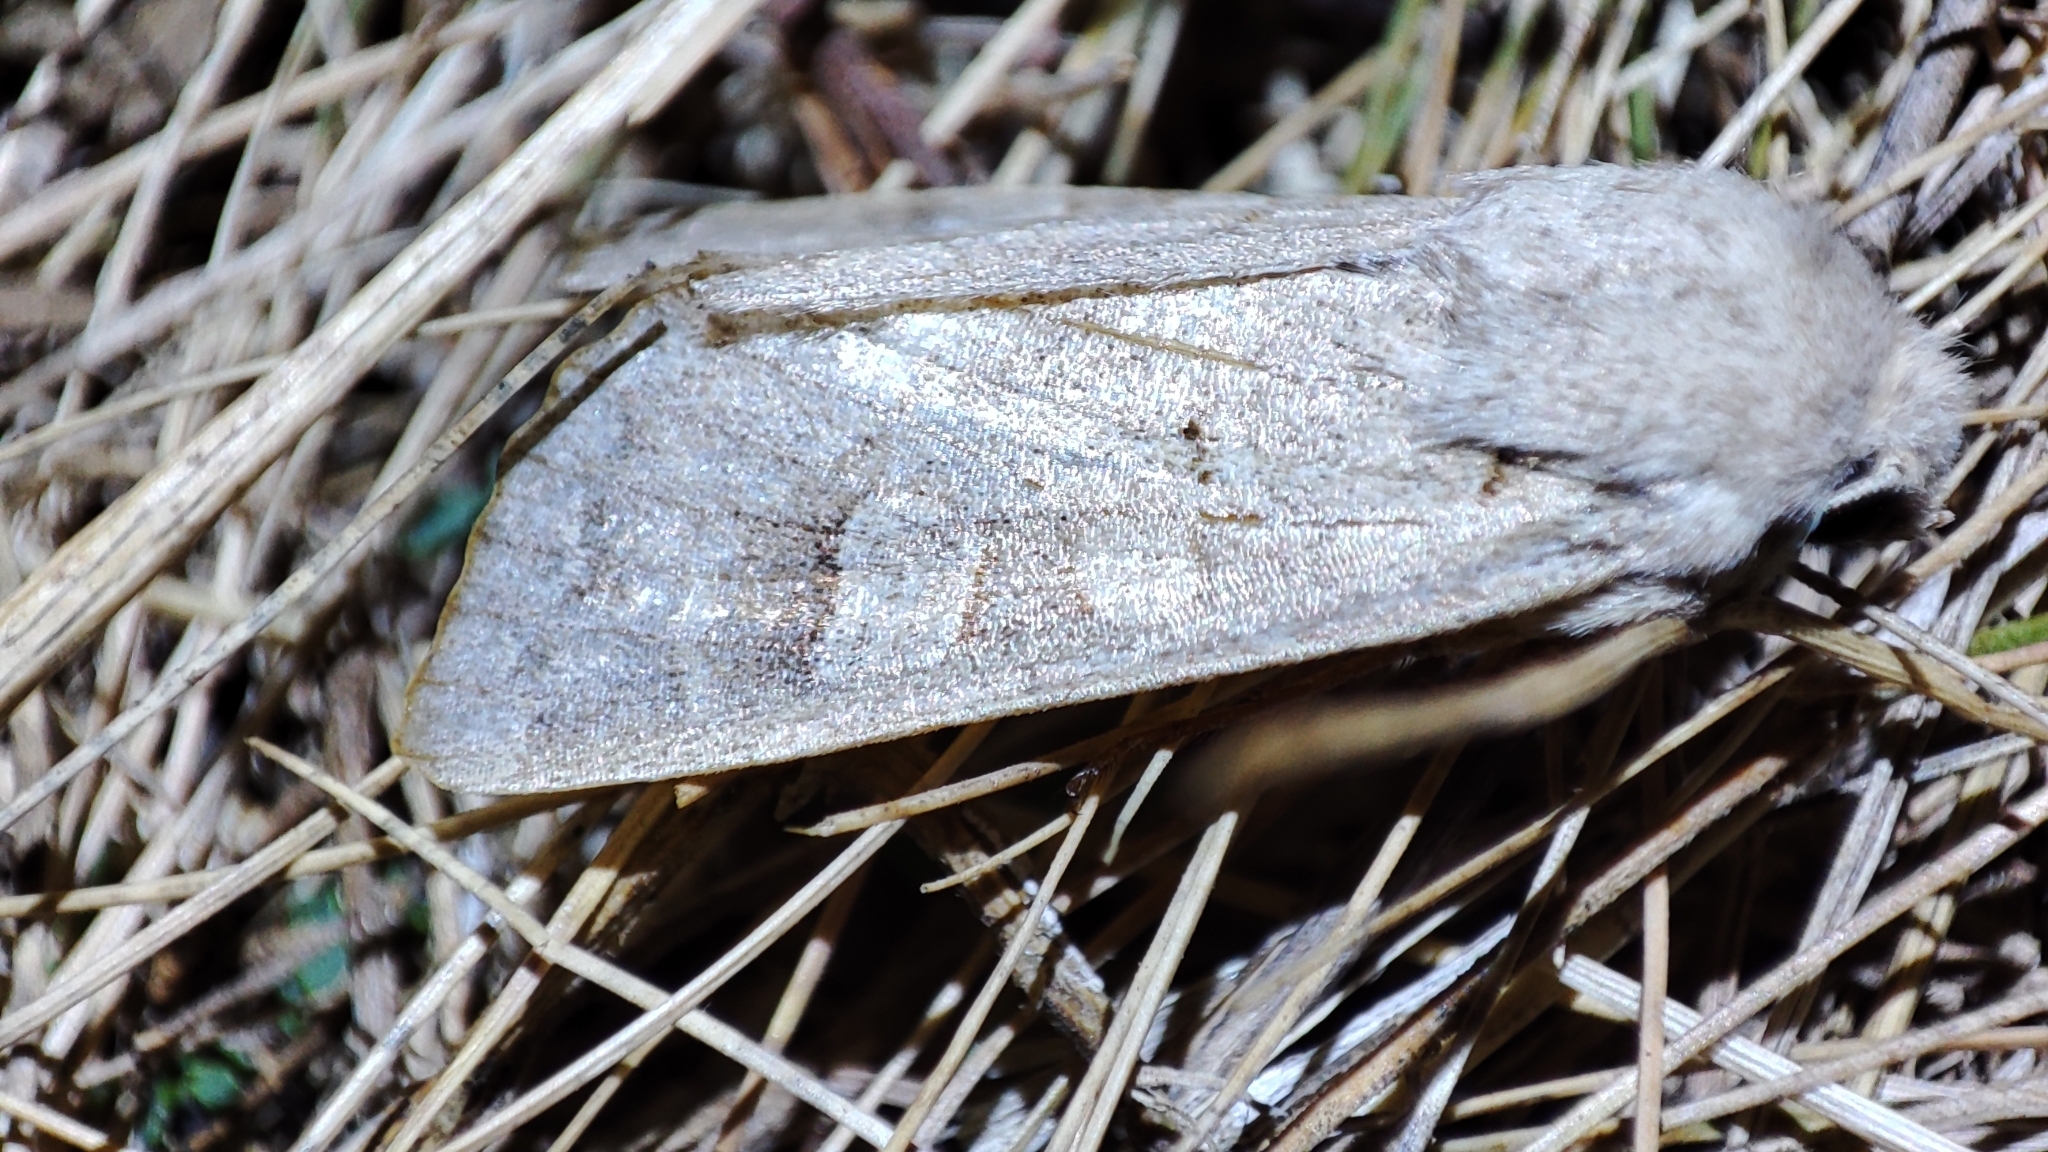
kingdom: Animalia
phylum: Arthropoda
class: Insecta
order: Lepidoptera
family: Noctuidae
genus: Ammoconia
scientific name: Ammoconia caecimacula
